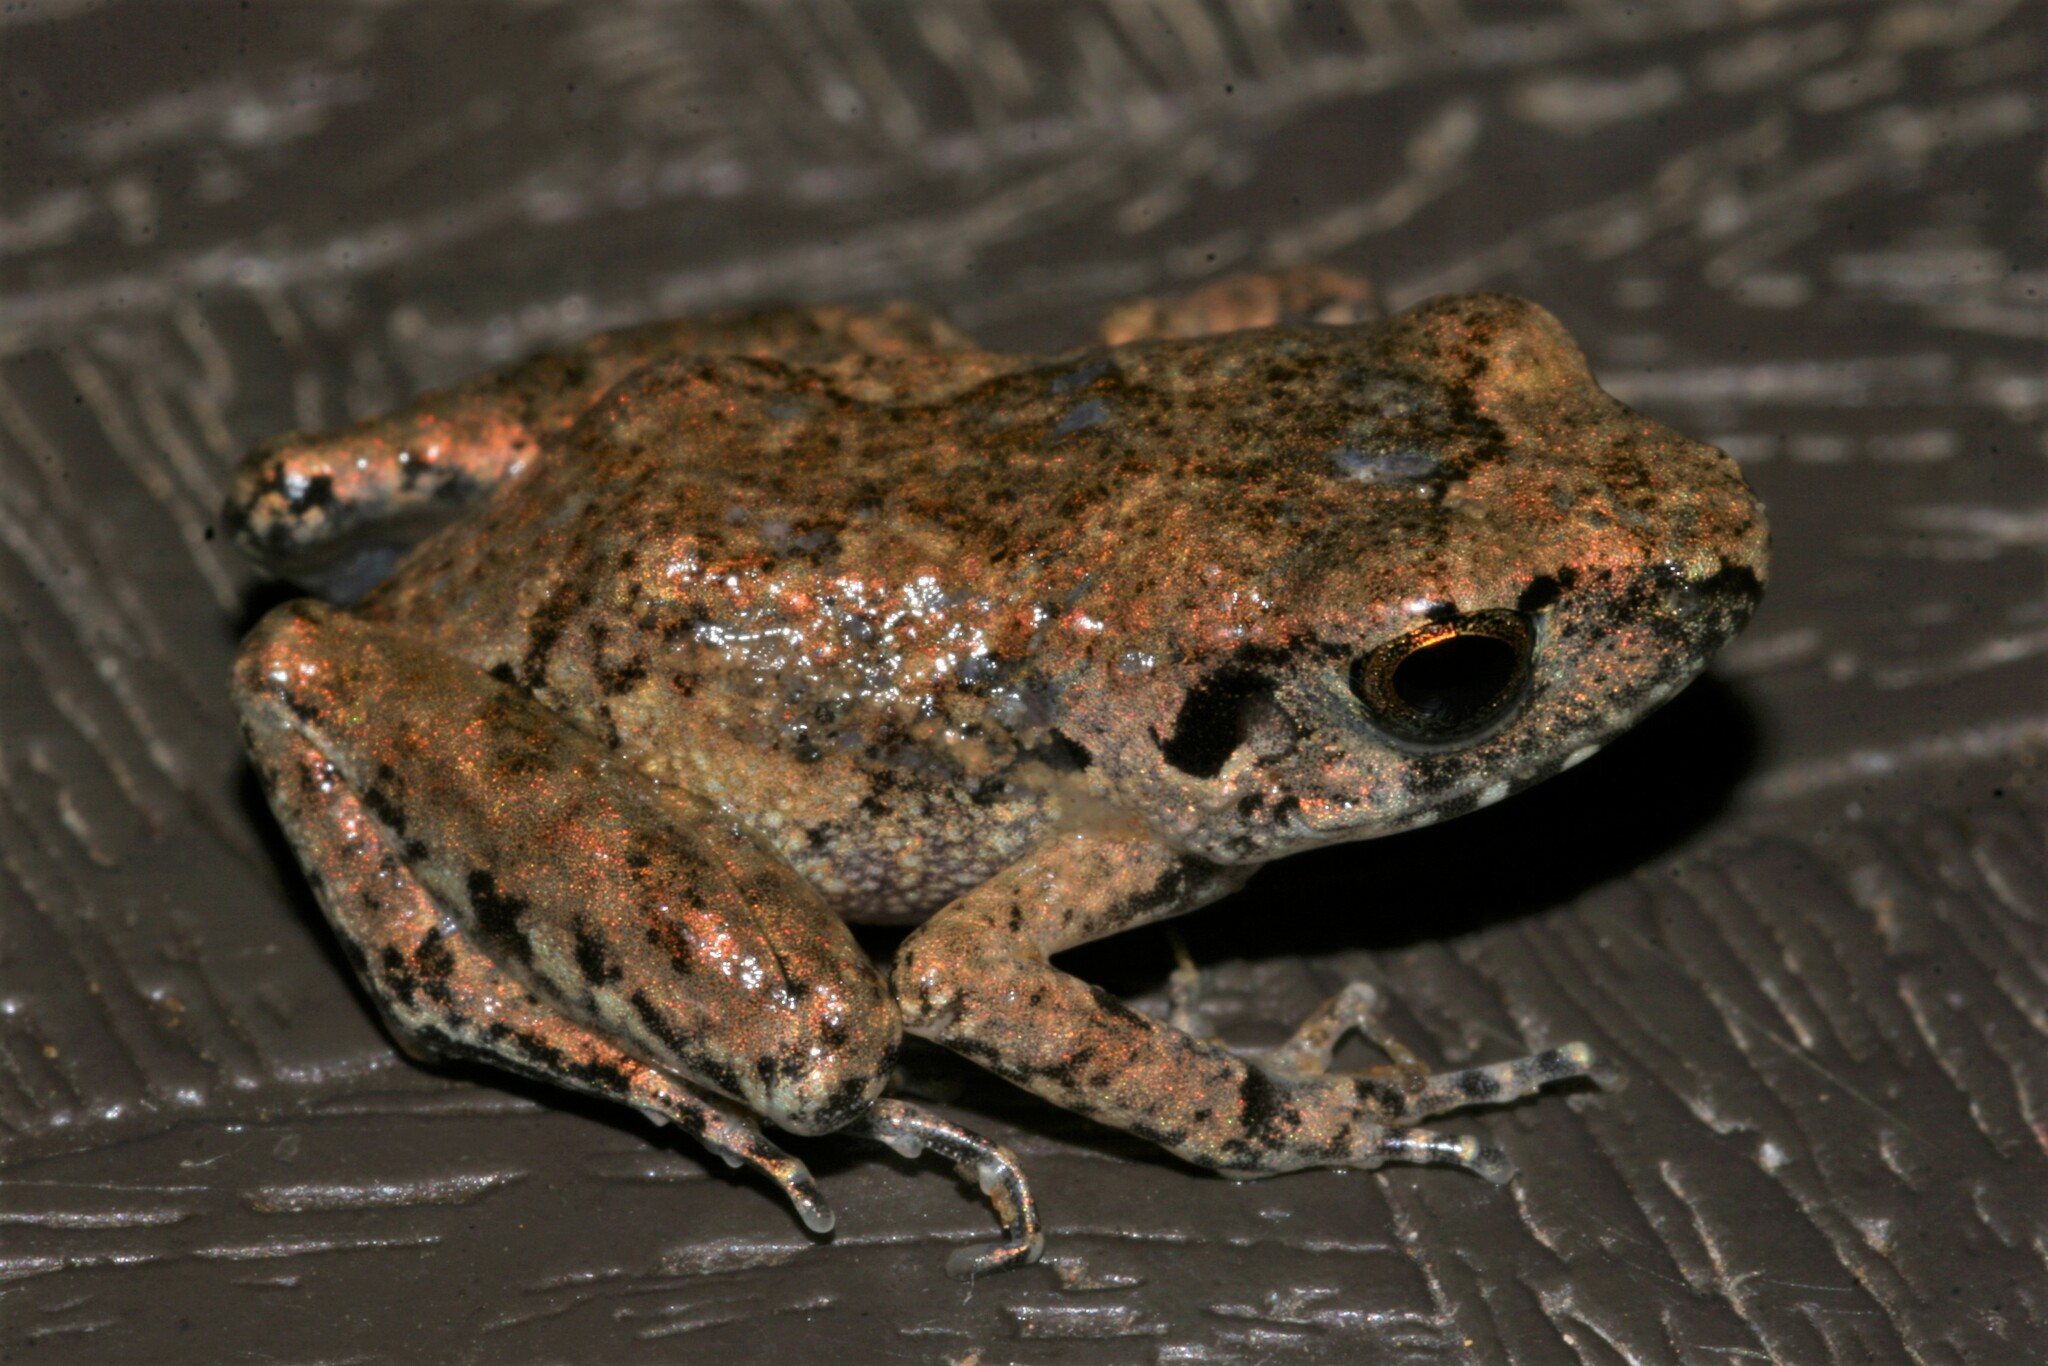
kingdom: Animalia
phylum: Chordata
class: Amphibia
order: Anura
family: Arthroleptidae
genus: Arthroleptis
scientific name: Arthroleptis poecilonotus
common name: West african screeching frog
